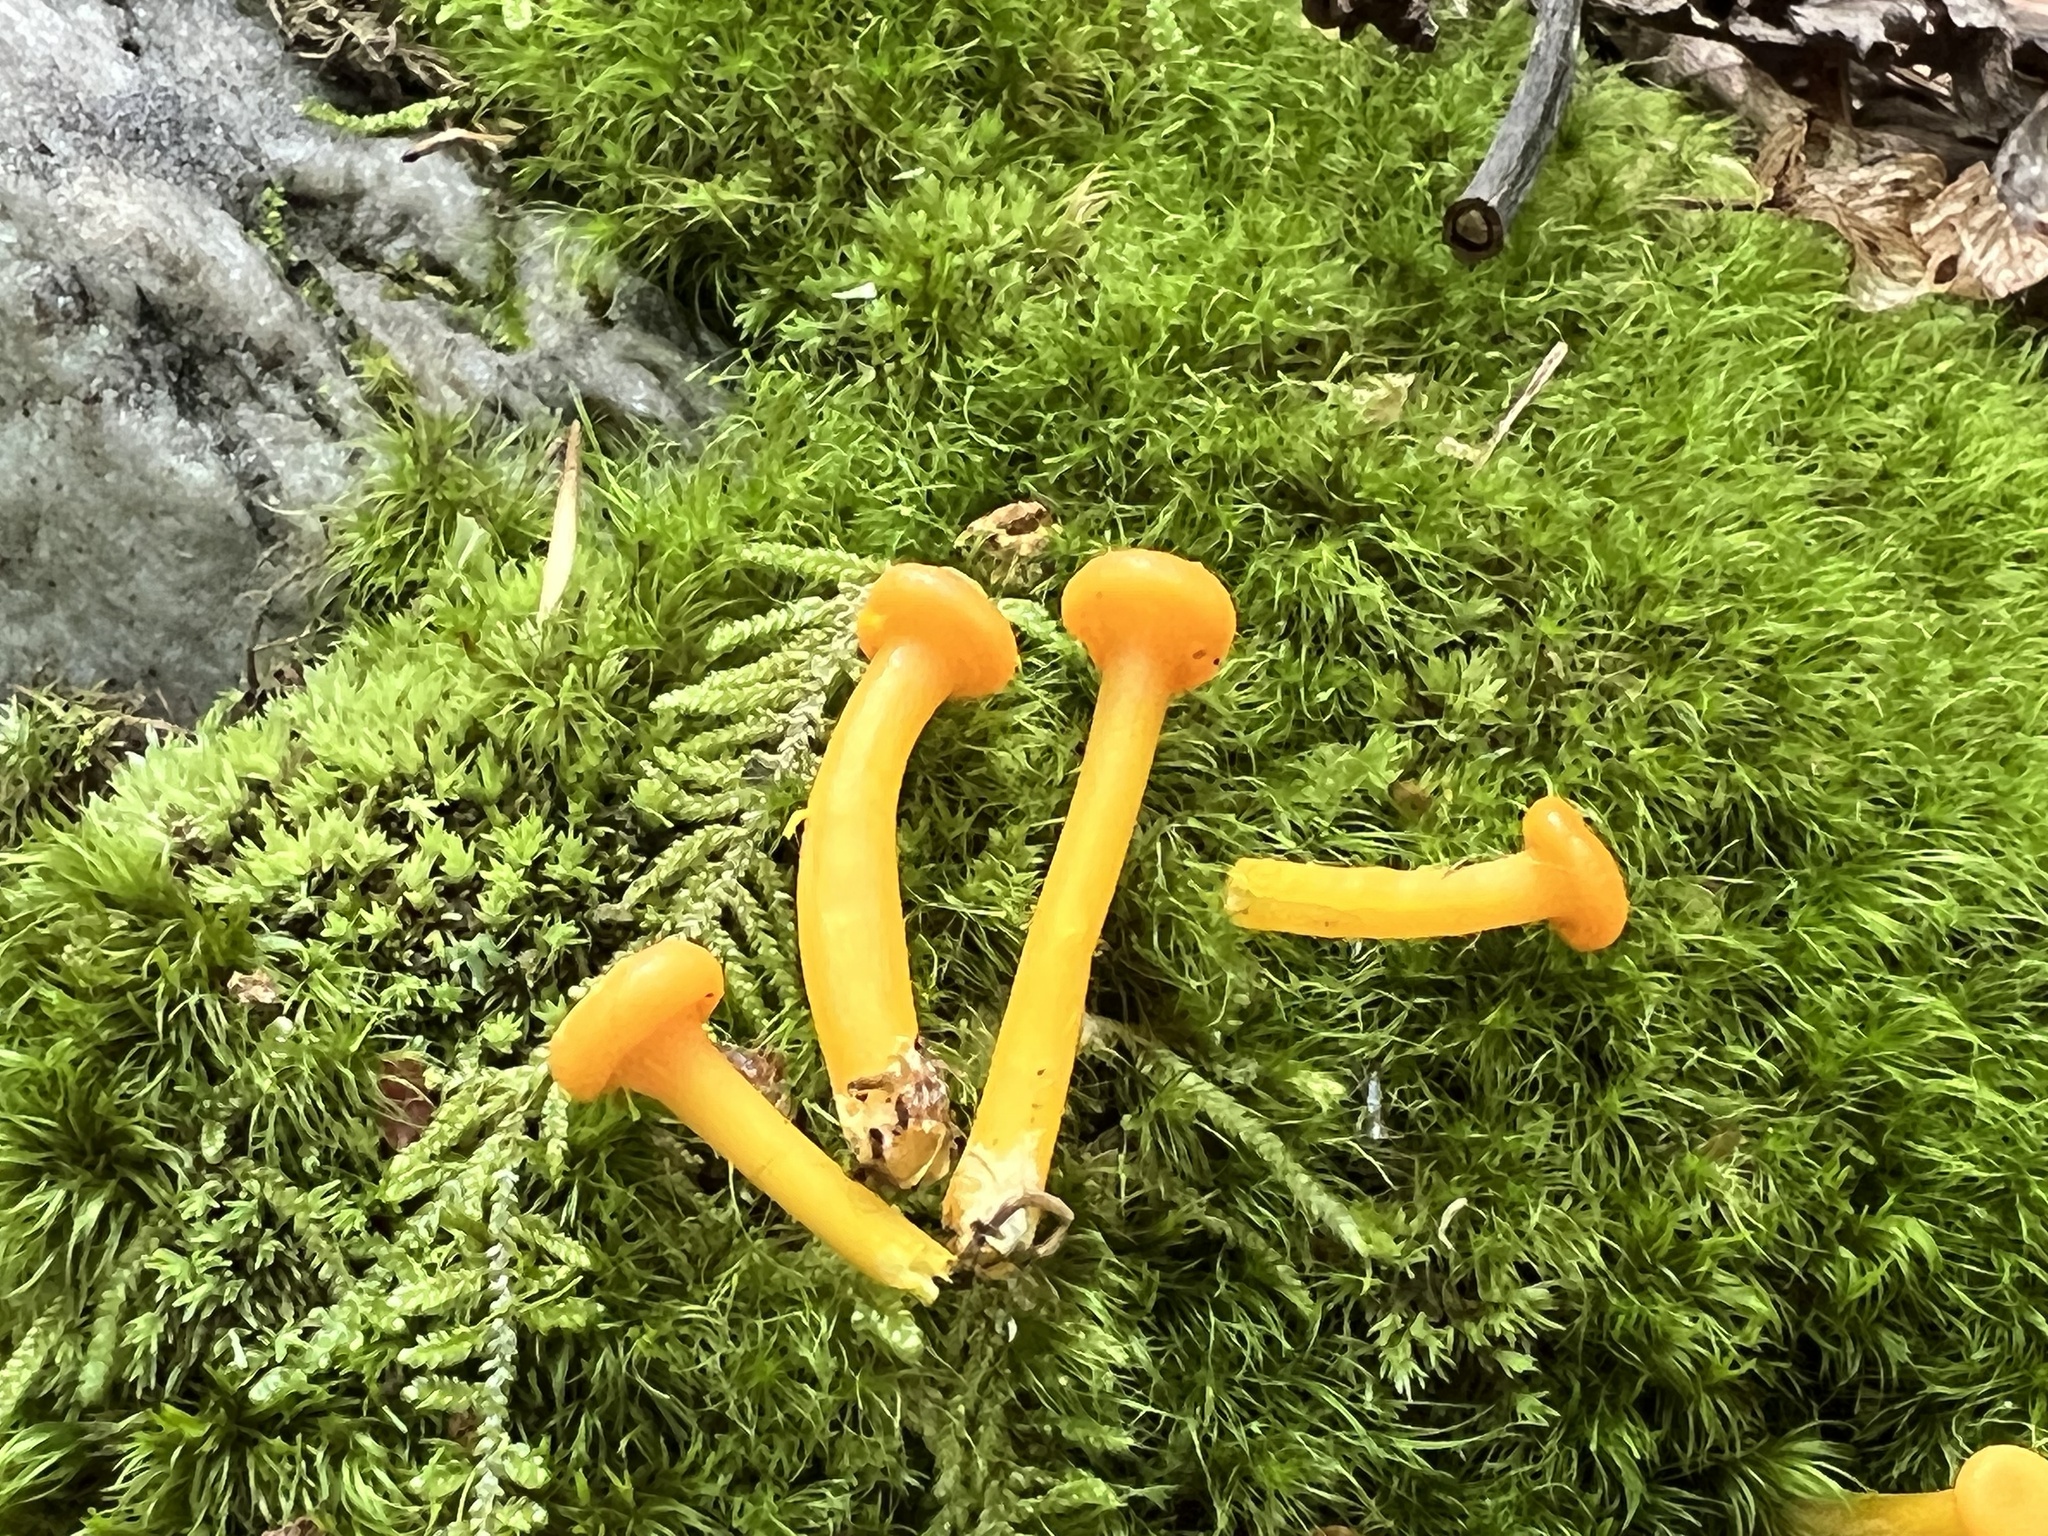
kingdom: Fungi
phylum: Basidiomycota
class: Agaricomycetes
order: Agaricales
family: Hygrophoraceae
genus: Gloioxanthomyces
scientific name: Gloioxanthomyces nitidus
